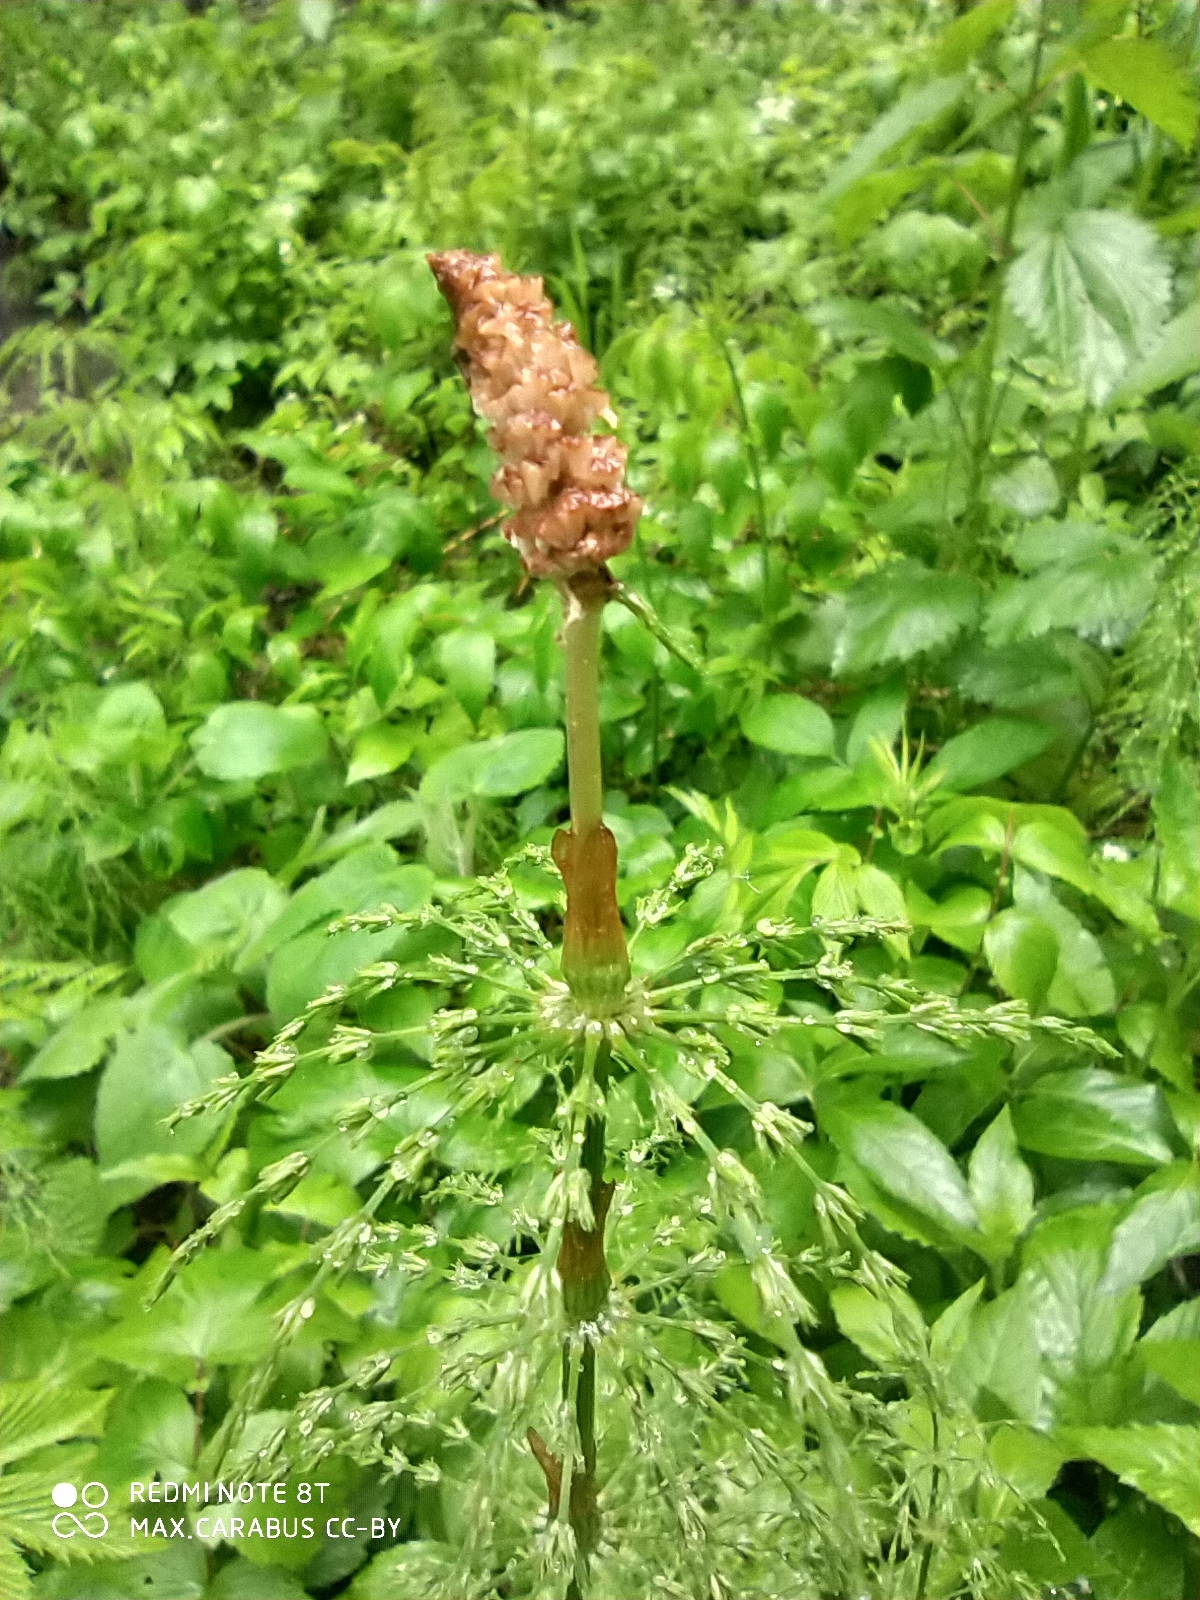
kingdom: Plantae
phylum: Tracheophyta
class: Polypodiopsida
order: Equisetales
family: Equisetaceae
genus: Equisetum
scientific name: Equisetum sylvaticum
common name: Wood horsetail
